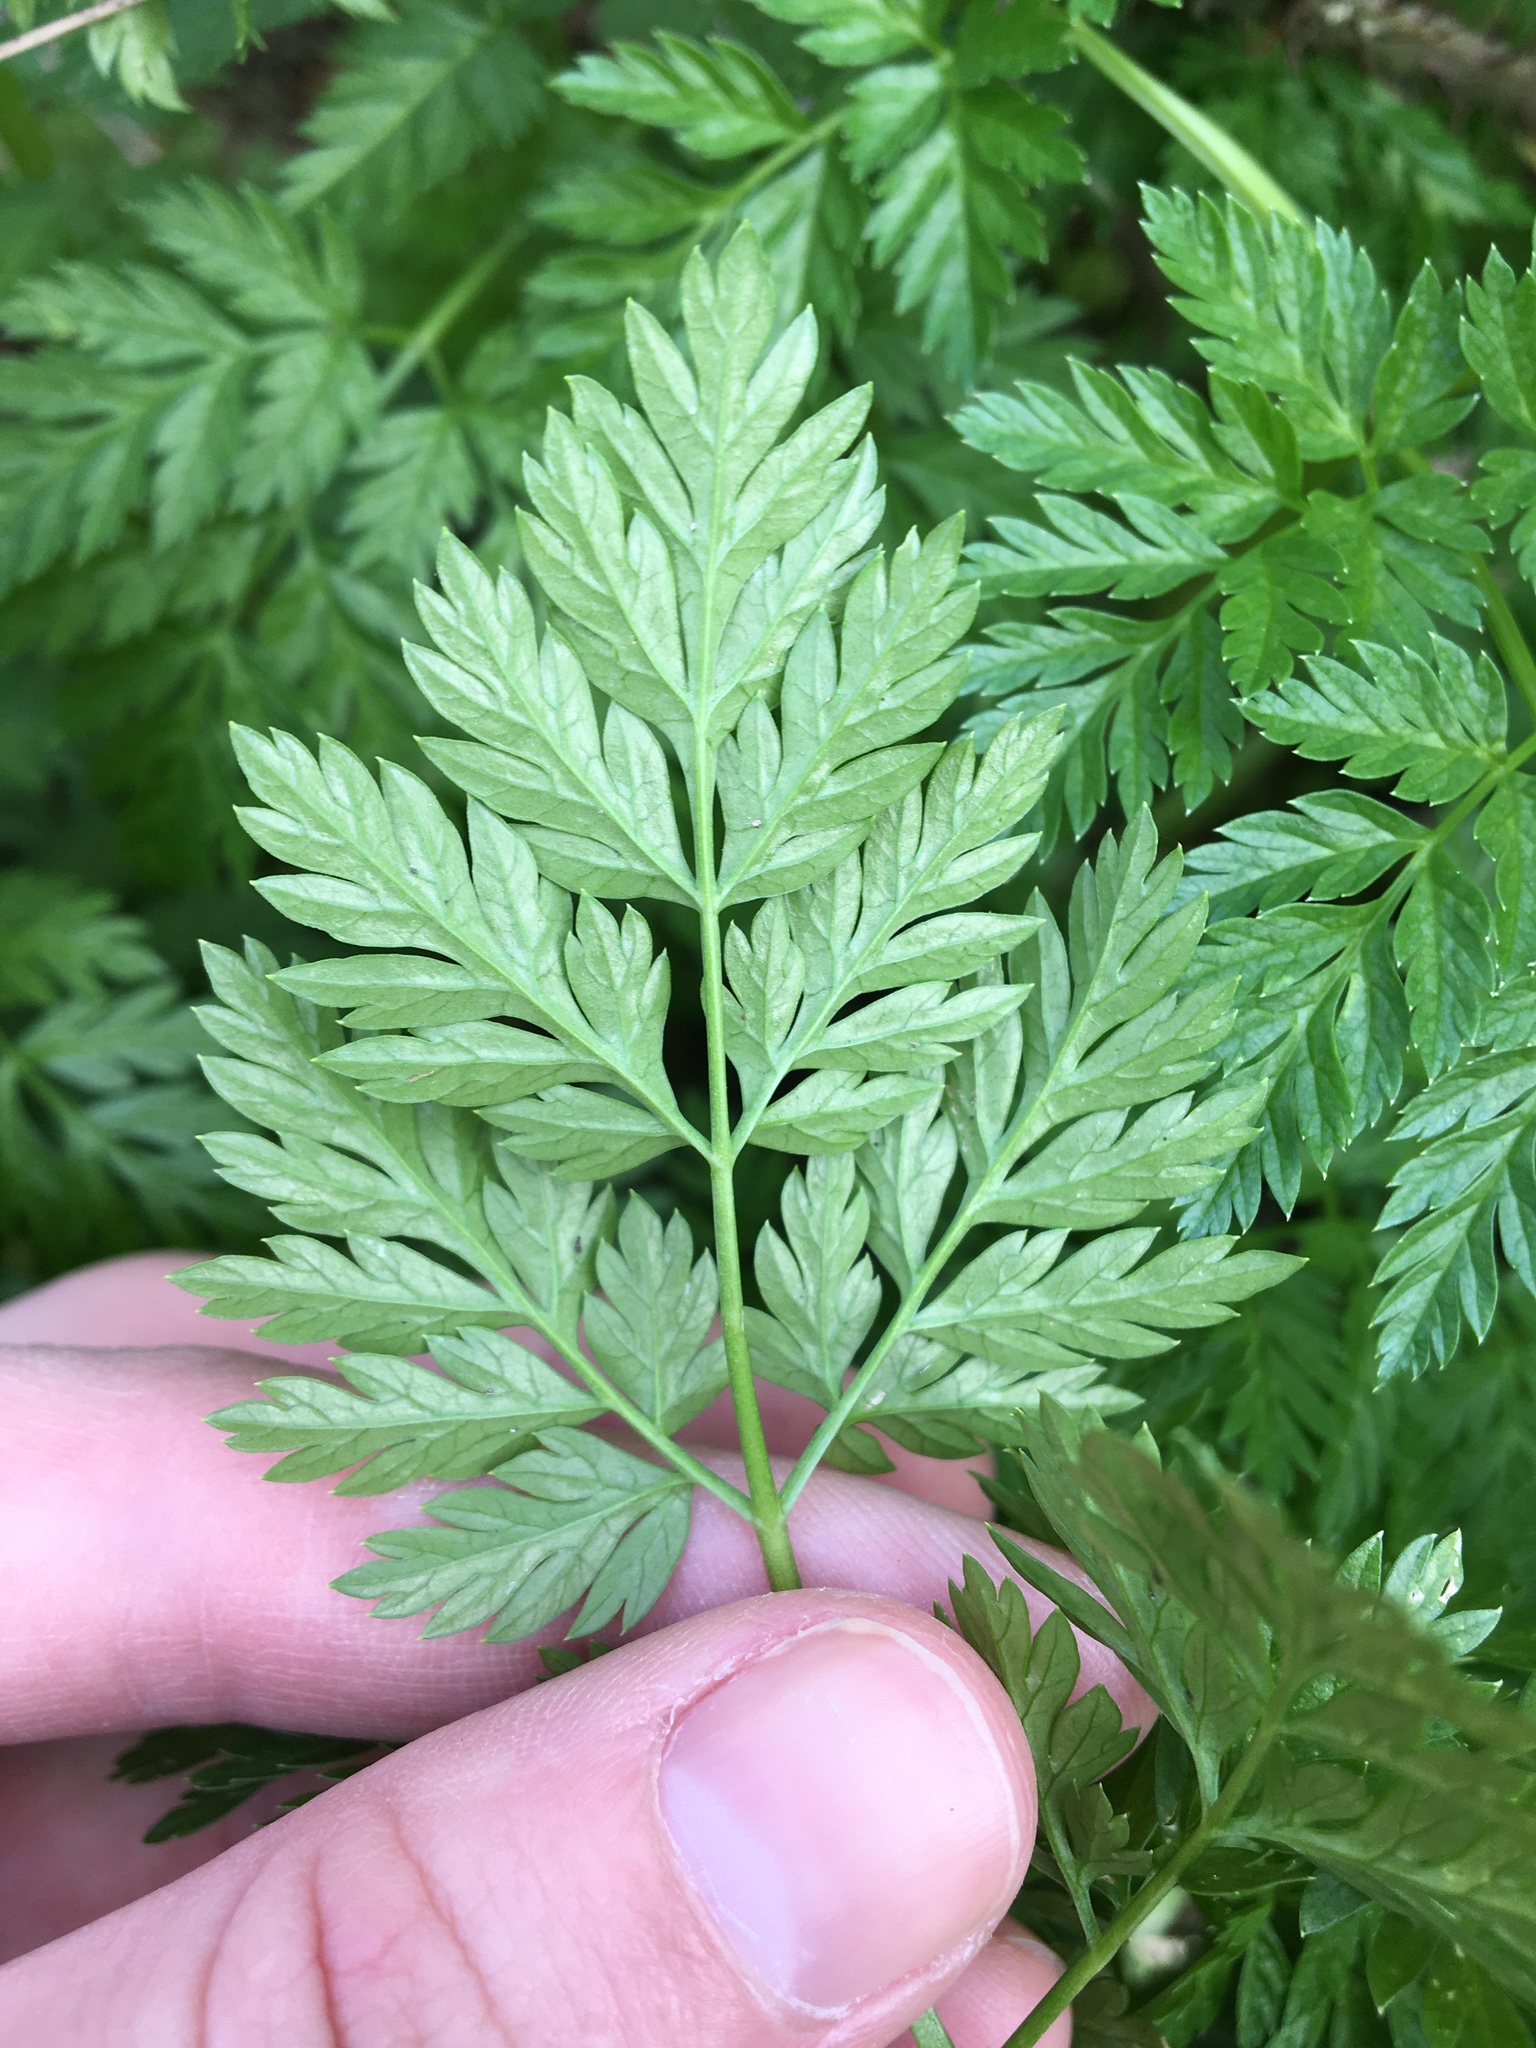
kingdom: Plantae
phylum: Tracheophyta
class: Magnoliopsida
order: Apiales
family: Apiaceae
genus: Conium
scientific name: Conium maculatum
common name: Hemlock
